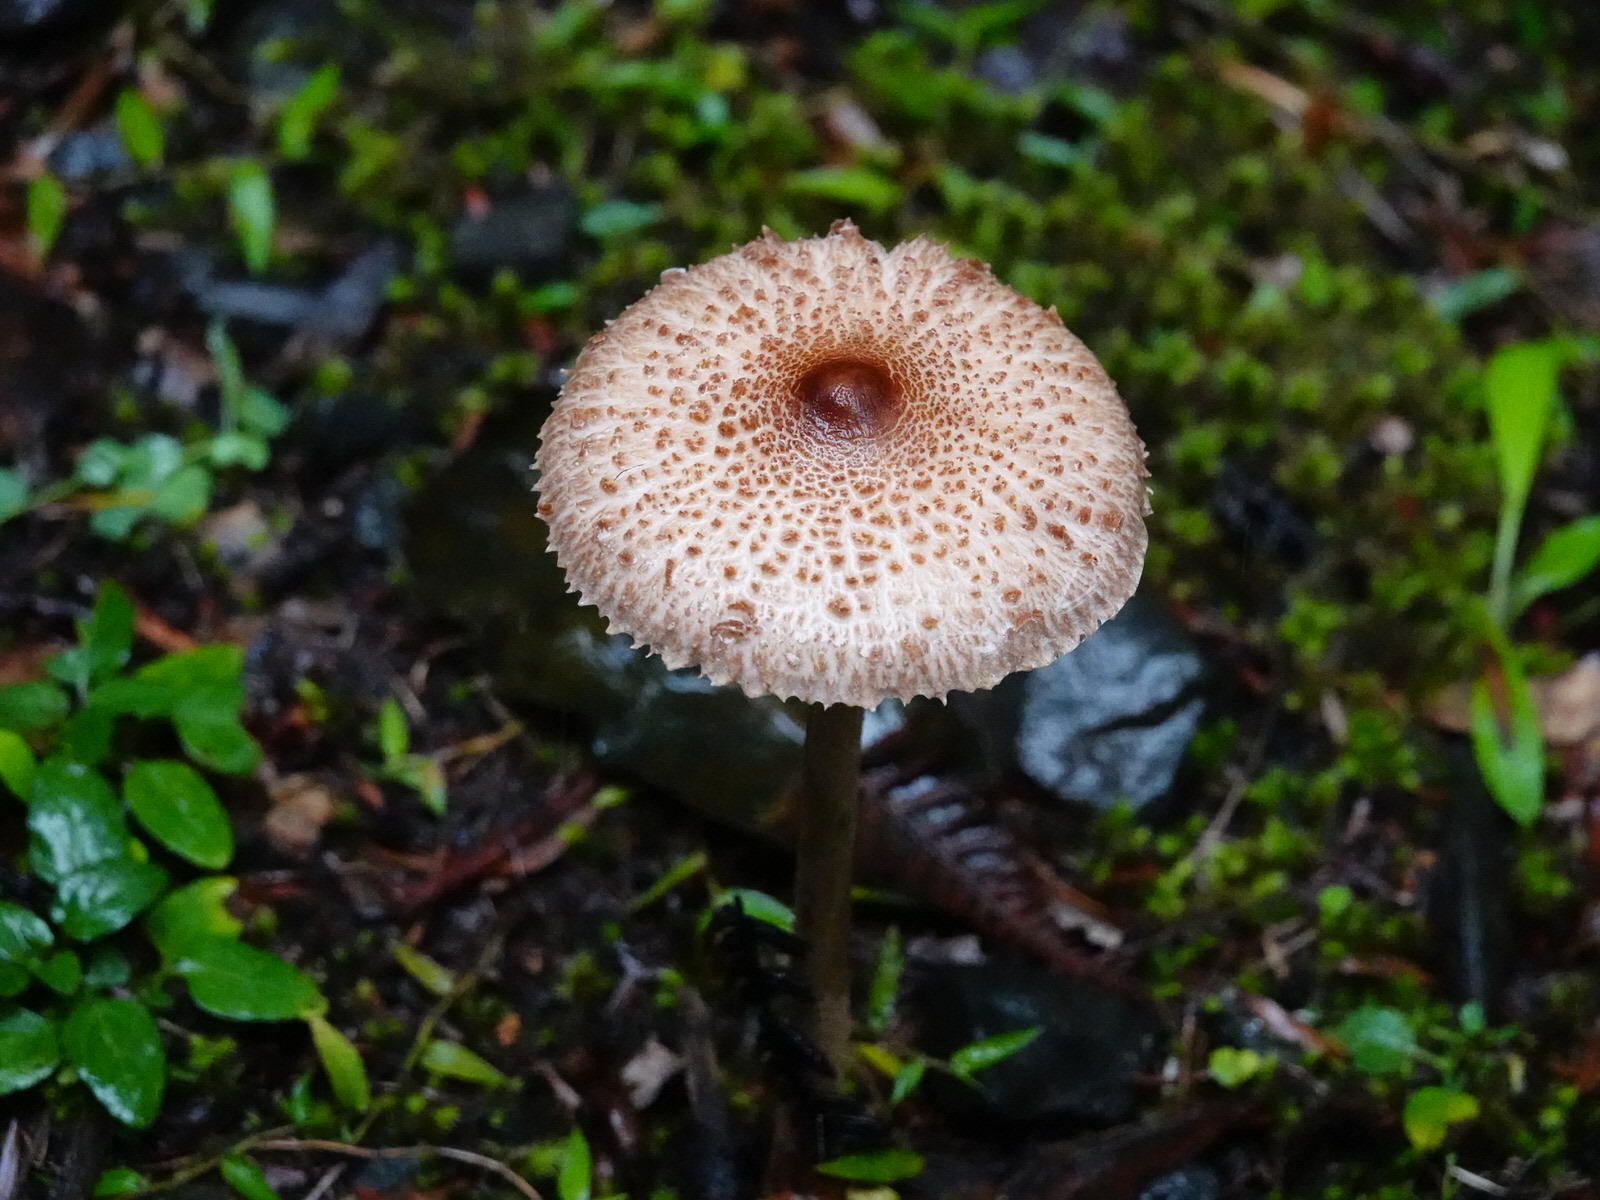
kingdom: Fungi
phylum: Basidiomycota
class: Agaricomycetes
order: Agaricales
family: Agaricaceae
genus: Macrolepiota
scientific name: Macrolepiota clelandii
